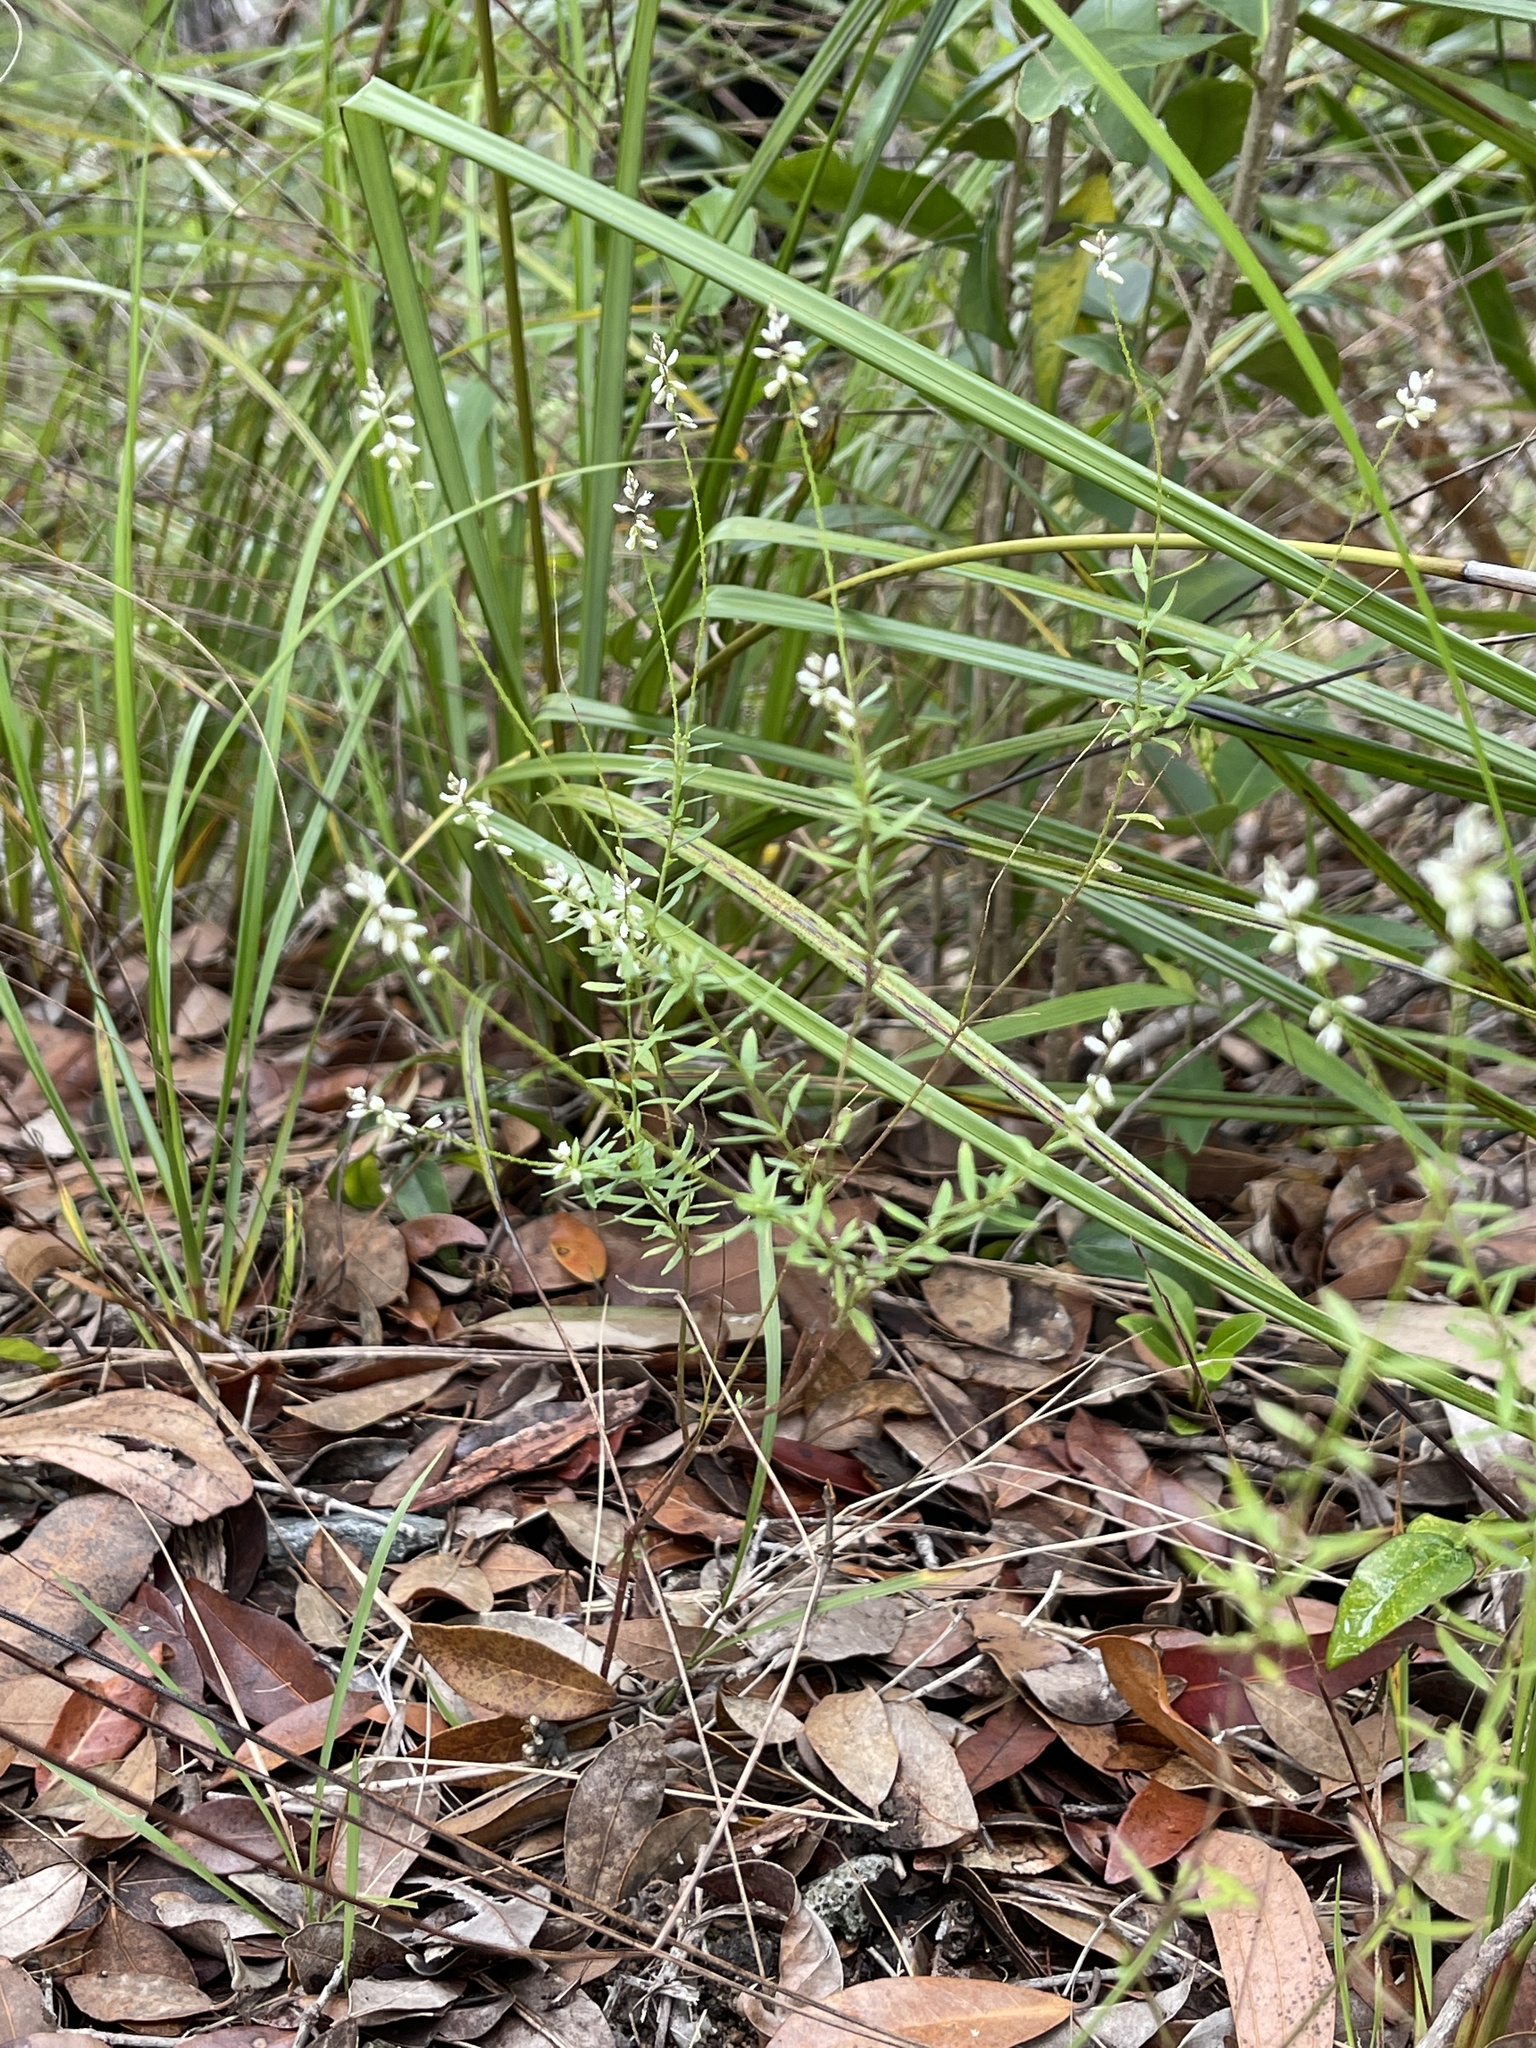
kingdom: Plantae
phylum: Tracheophyta
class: Magnoliopsida
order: Fabales
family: Polygalaceae
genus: Polygala
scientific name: Polygala paniculata
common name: Orosne
